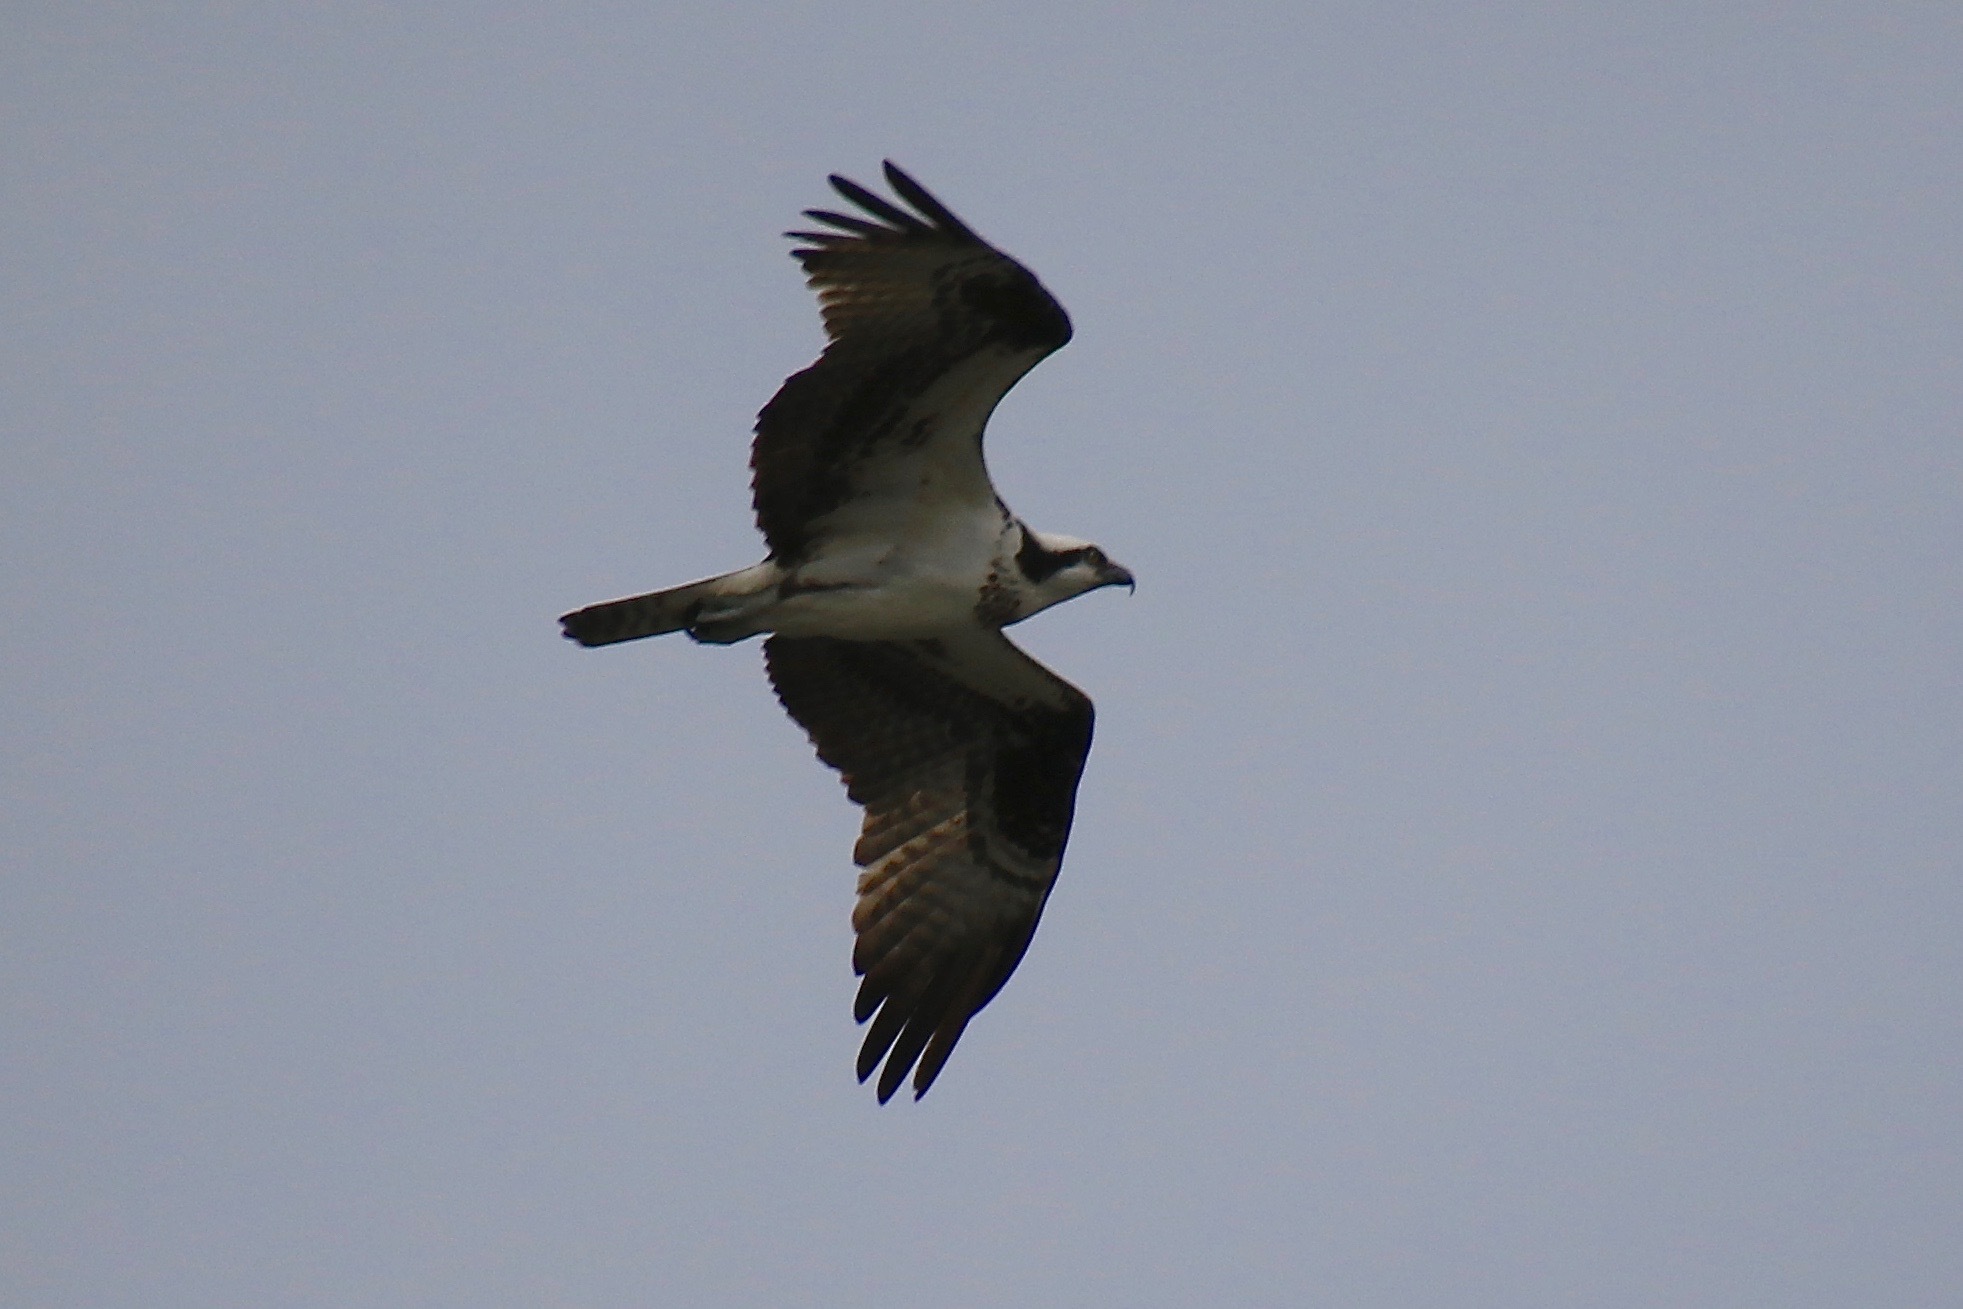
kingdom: Animalia
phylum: Chordata
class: Aves
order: Accipitriformes
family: Pandionidae
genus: Pandion
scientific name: Pandion haliaetus
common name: Osprey
